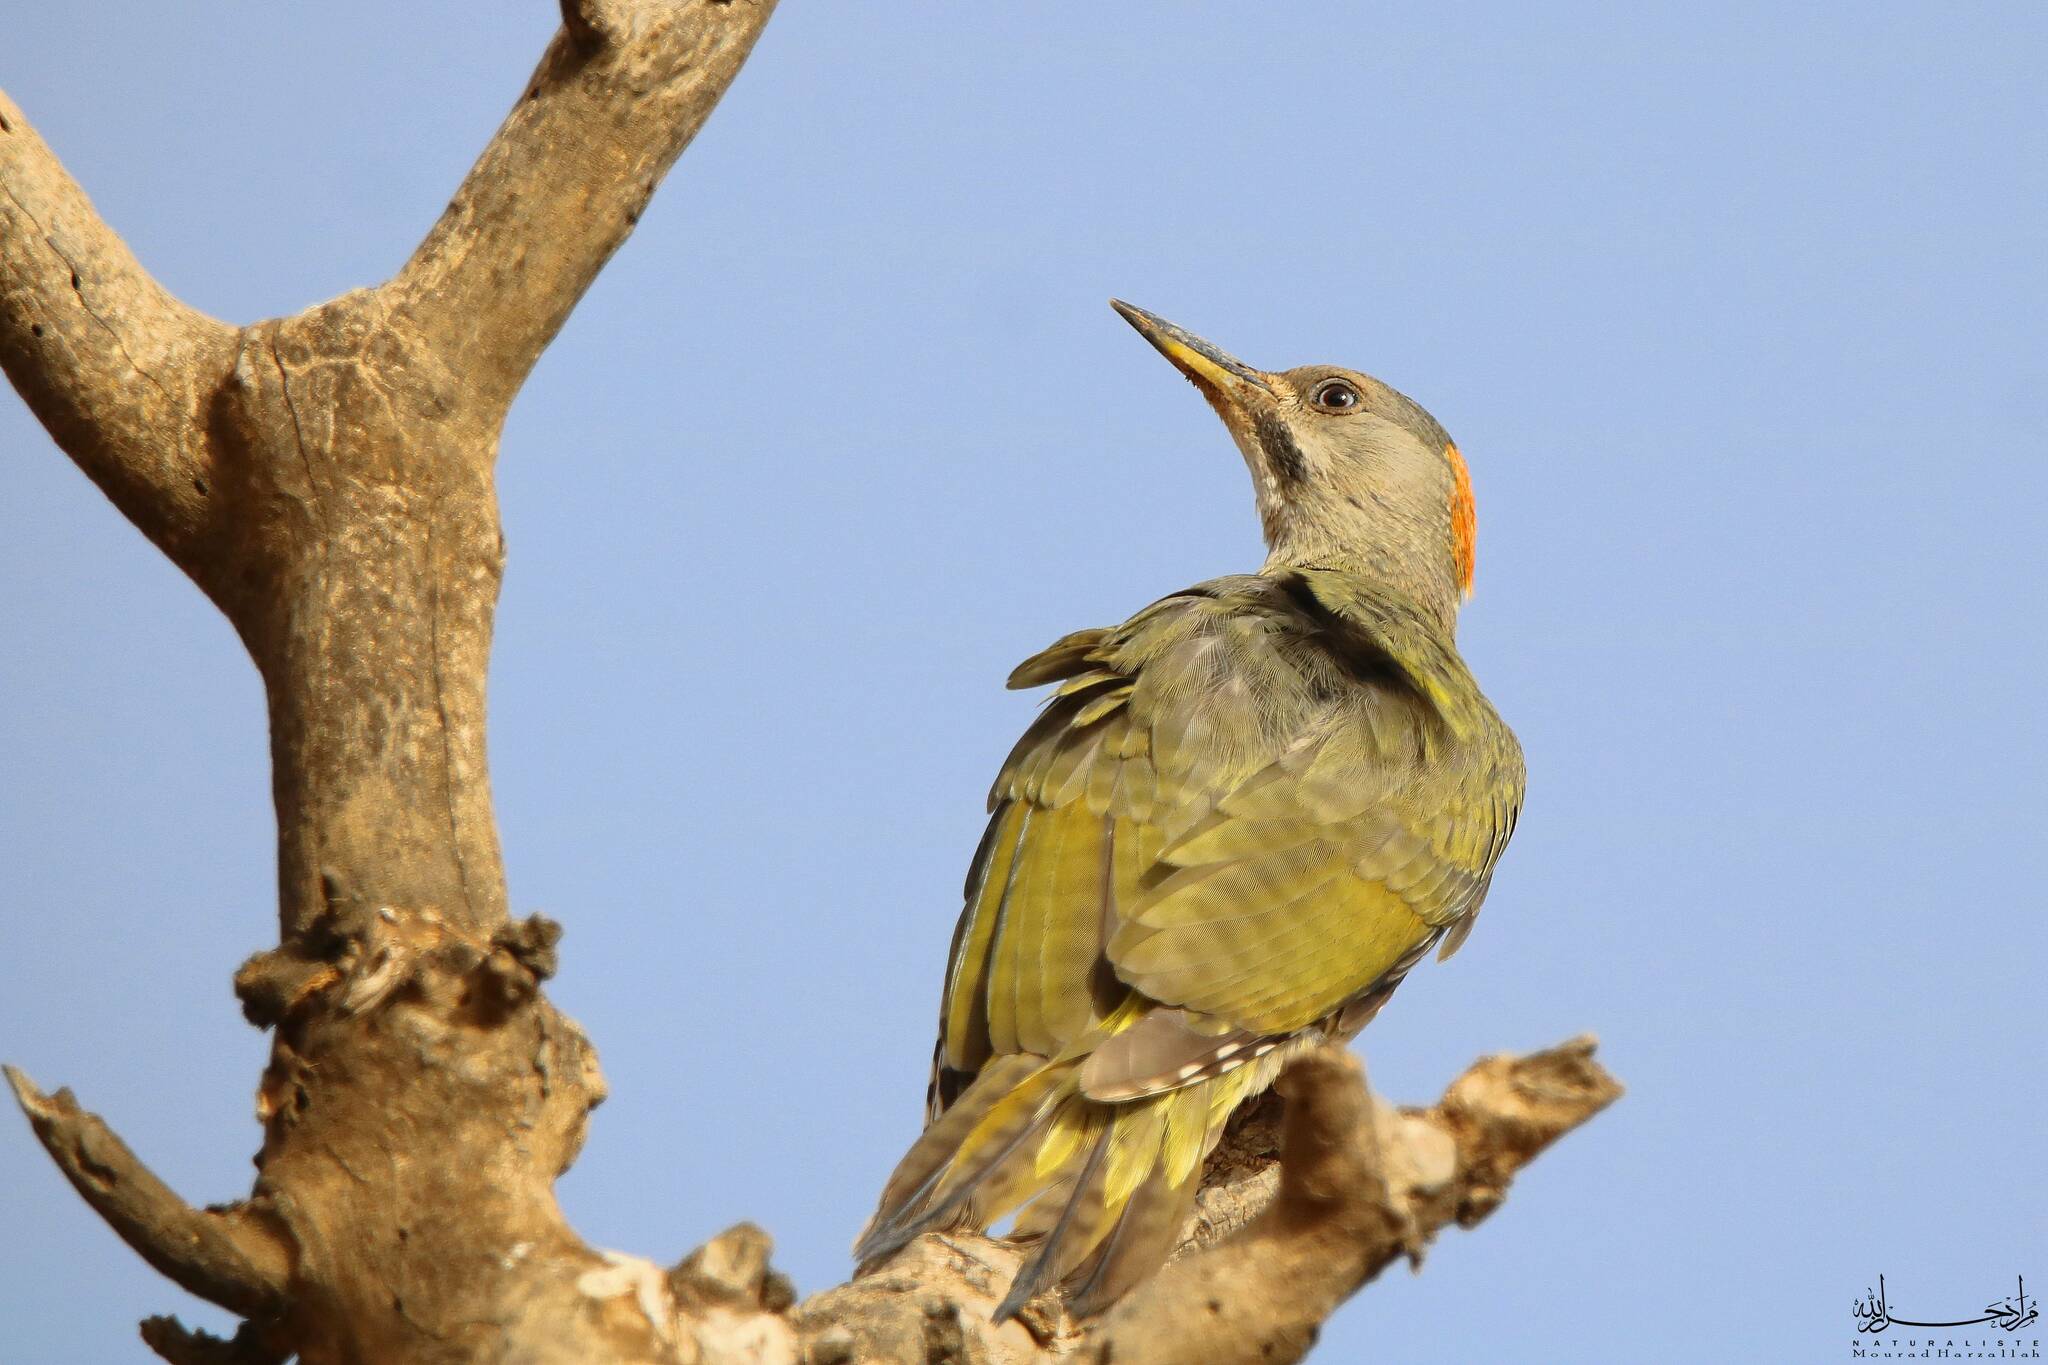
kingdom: Animalia
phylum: Chordata
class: Aves
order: Piciformes
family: Picidae
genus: Picus
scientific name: Picus vaillantii
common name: Levaillant's woodpecker
